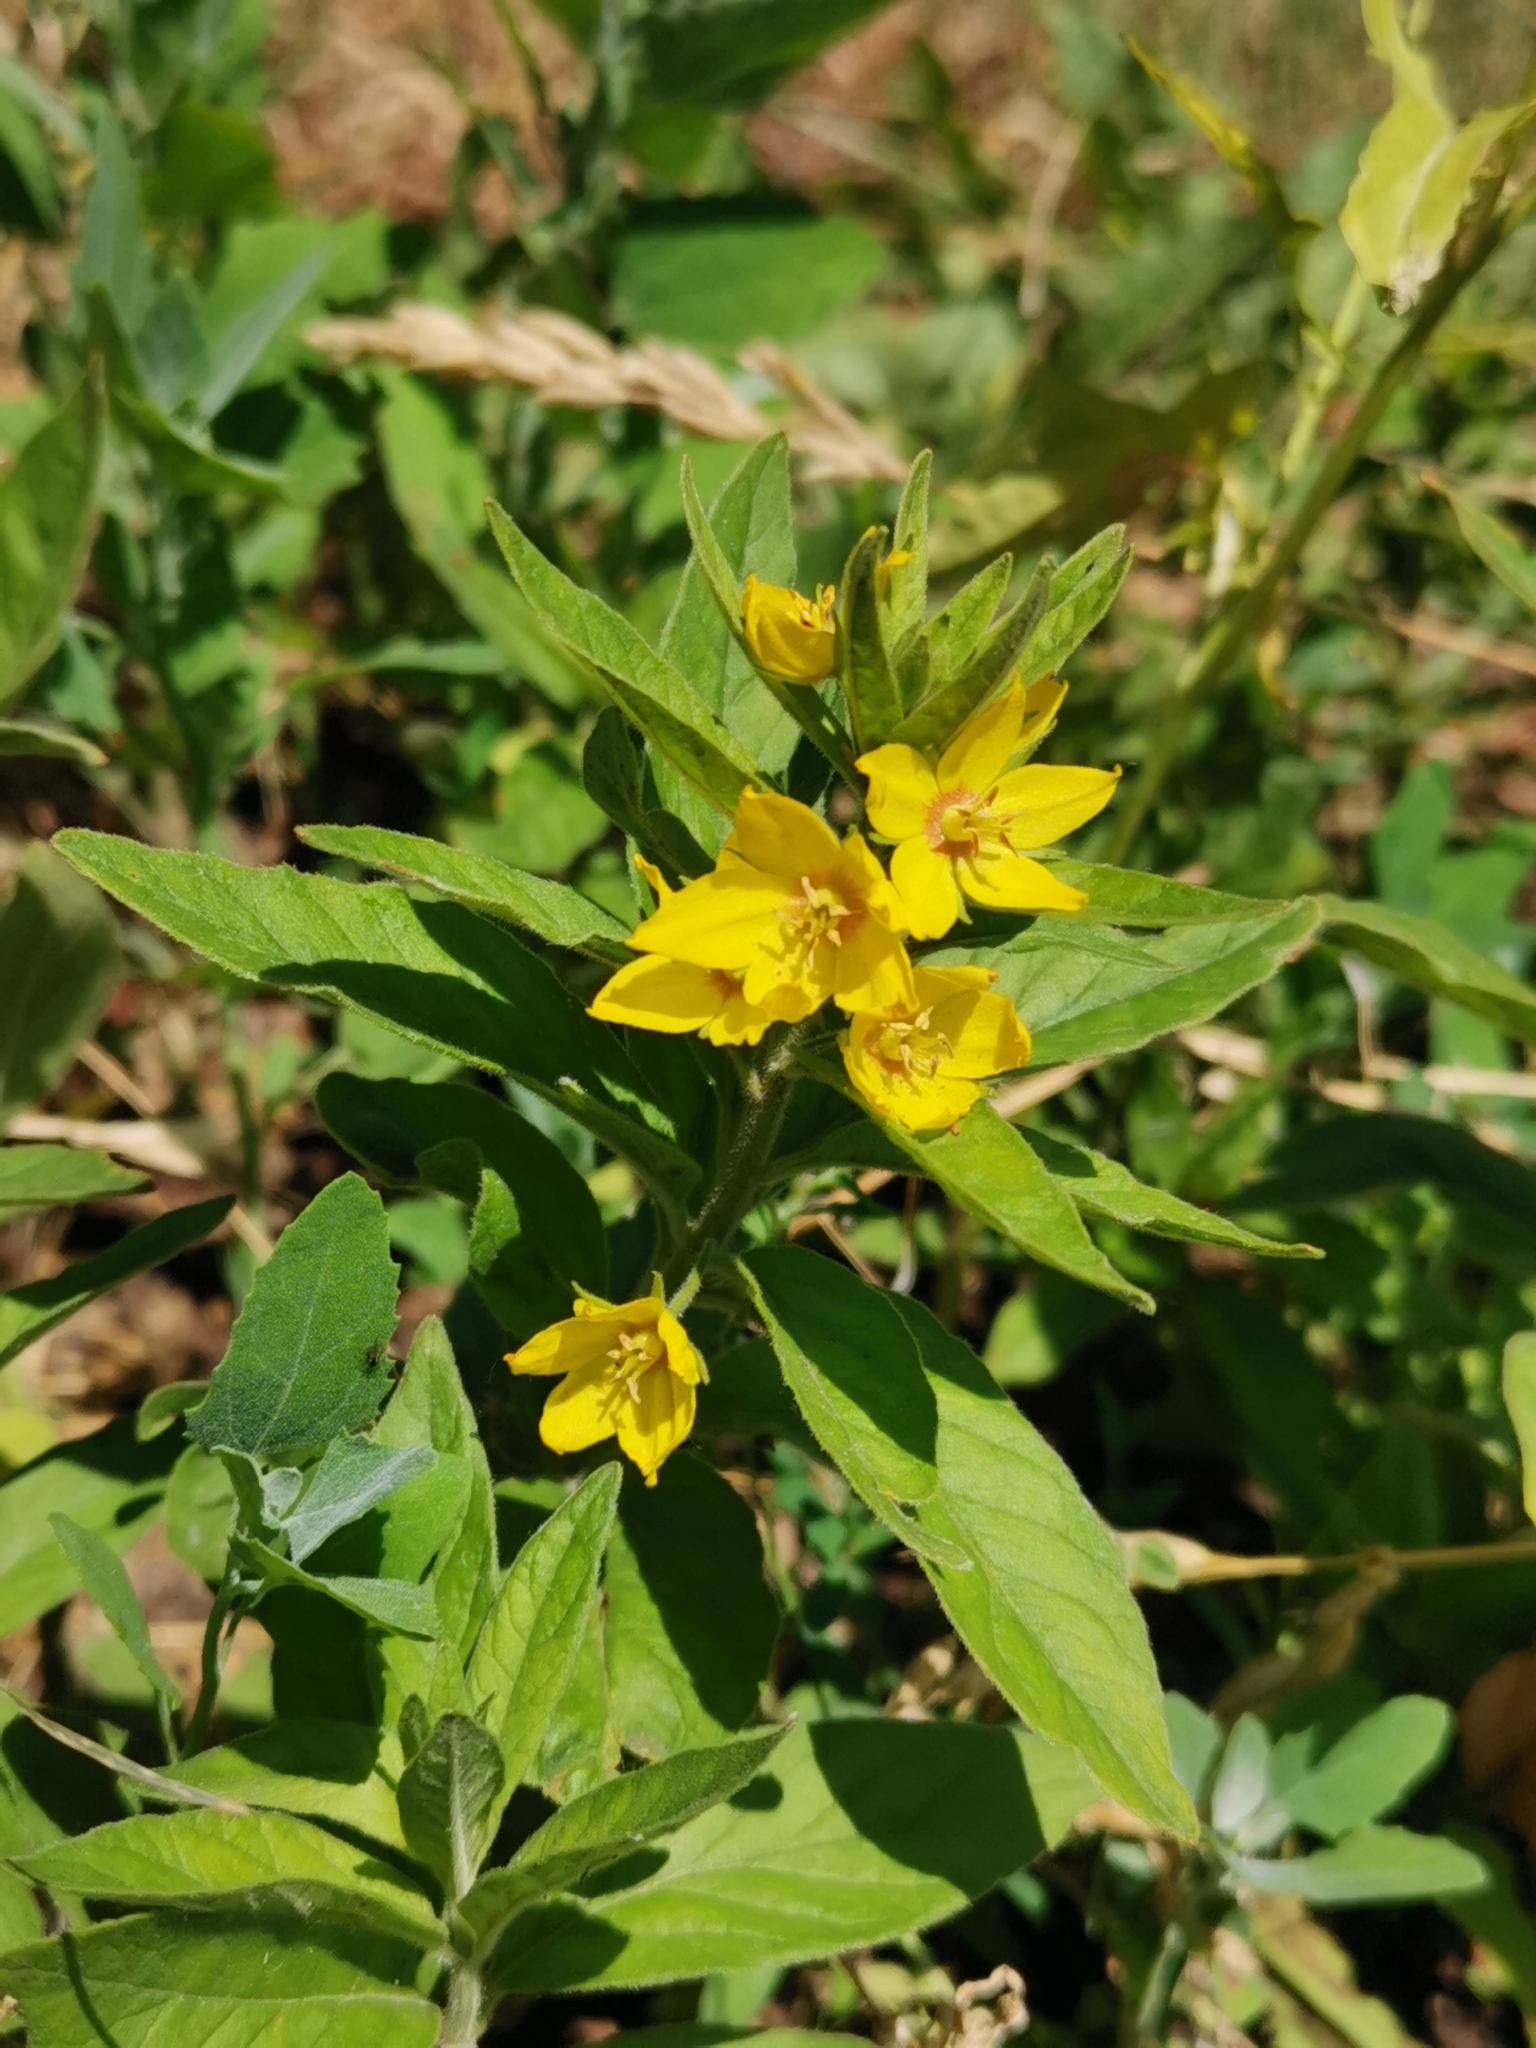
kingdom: Plantae
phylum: Tracheophyta
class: Magnoliopsida
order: Ericales
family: Primulaceae
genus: Lysimachia
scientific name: Lysimachia punctata
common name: Dotted loosestrife
